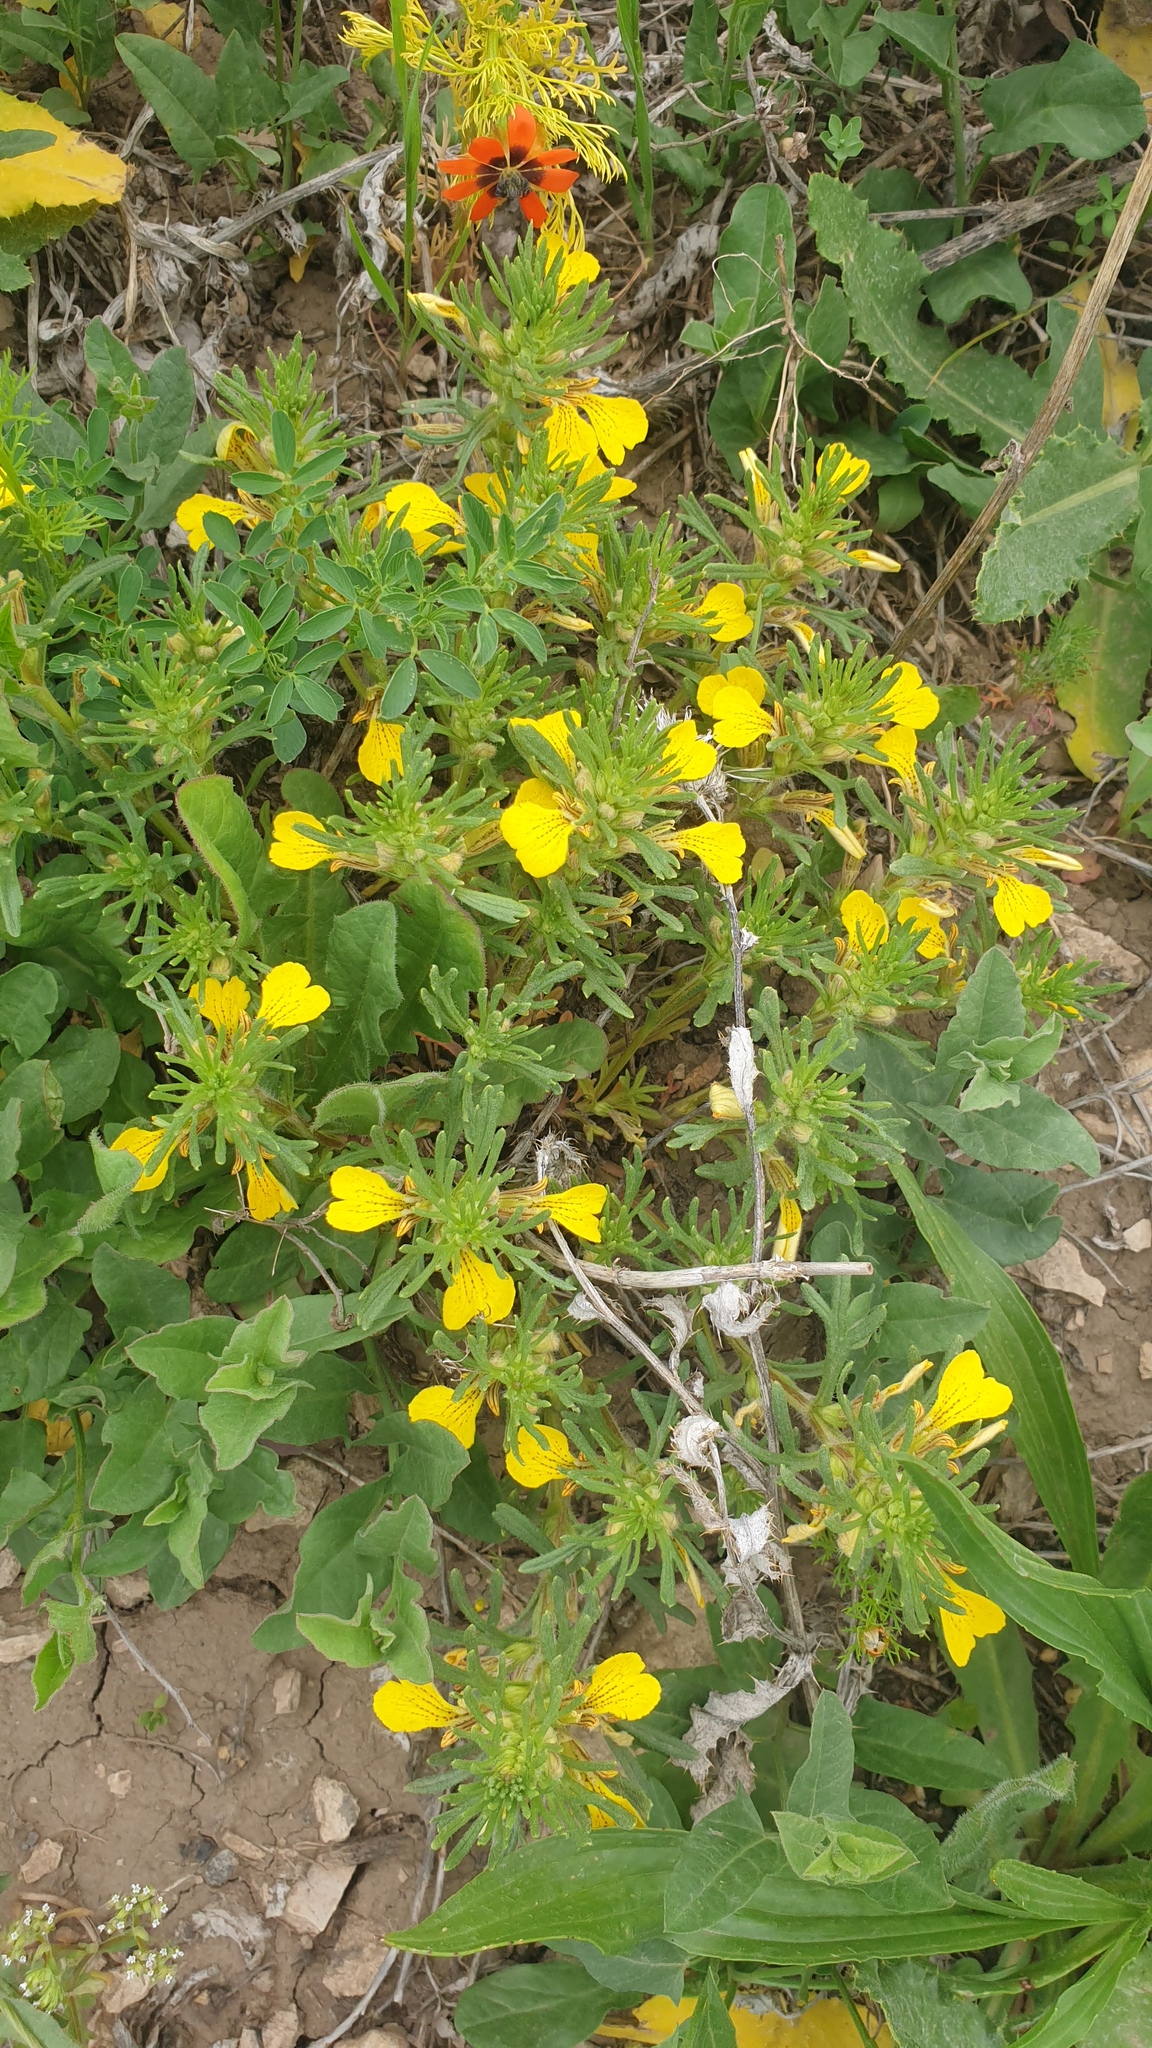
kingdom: Plantae
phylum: Tracheophyta
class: Magnoliopsida
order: Lamiales
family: Lamiaceae
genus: Ajuga
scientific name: Ajuga chamaepitys
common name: Ground-pine
